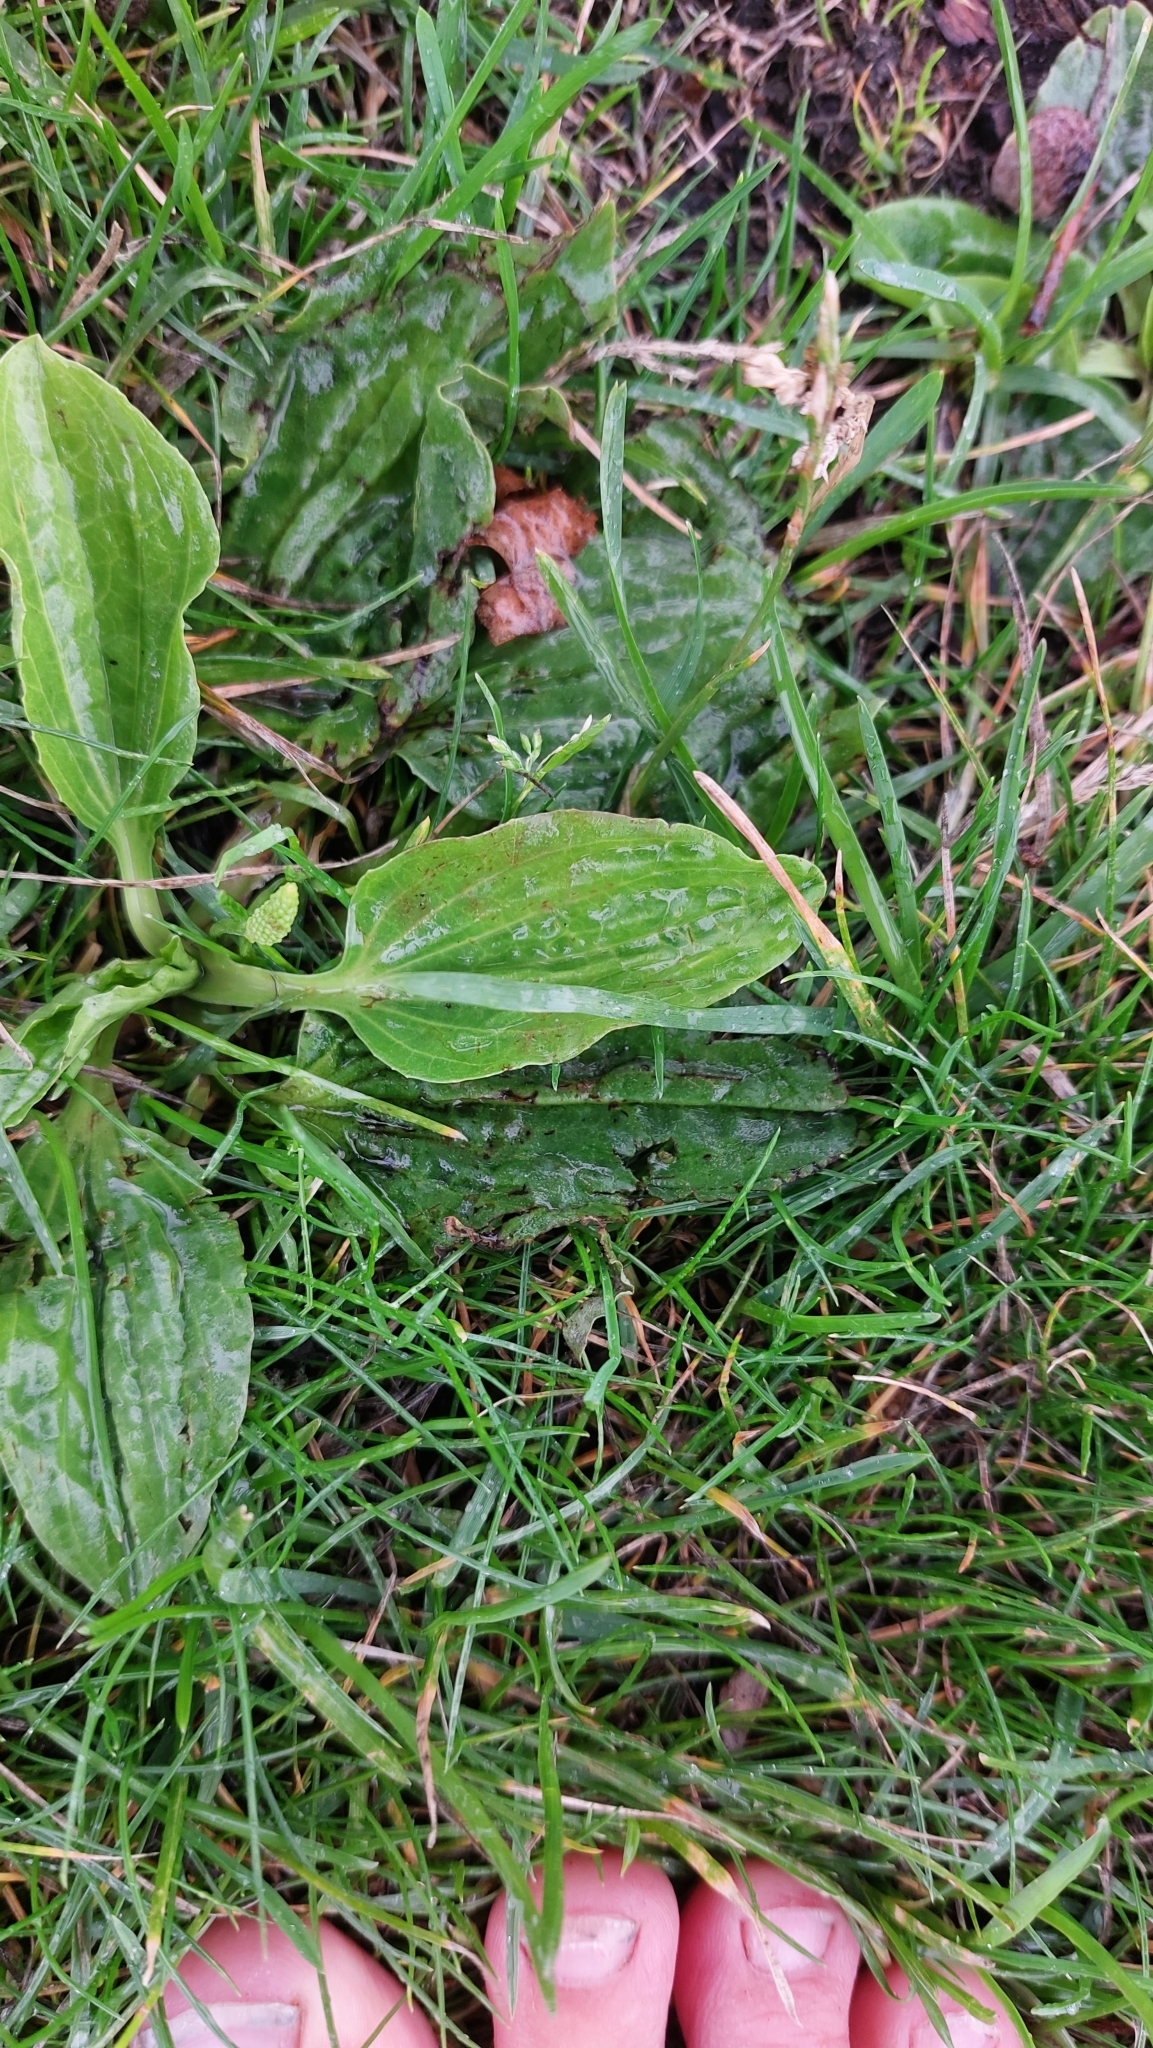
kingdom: Plantae
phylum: Tracheophyta
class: Magnoliopsida
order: Lamiales
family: Plantaginaceae
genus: Plantago
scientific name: Plantago major
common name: Common plantain
